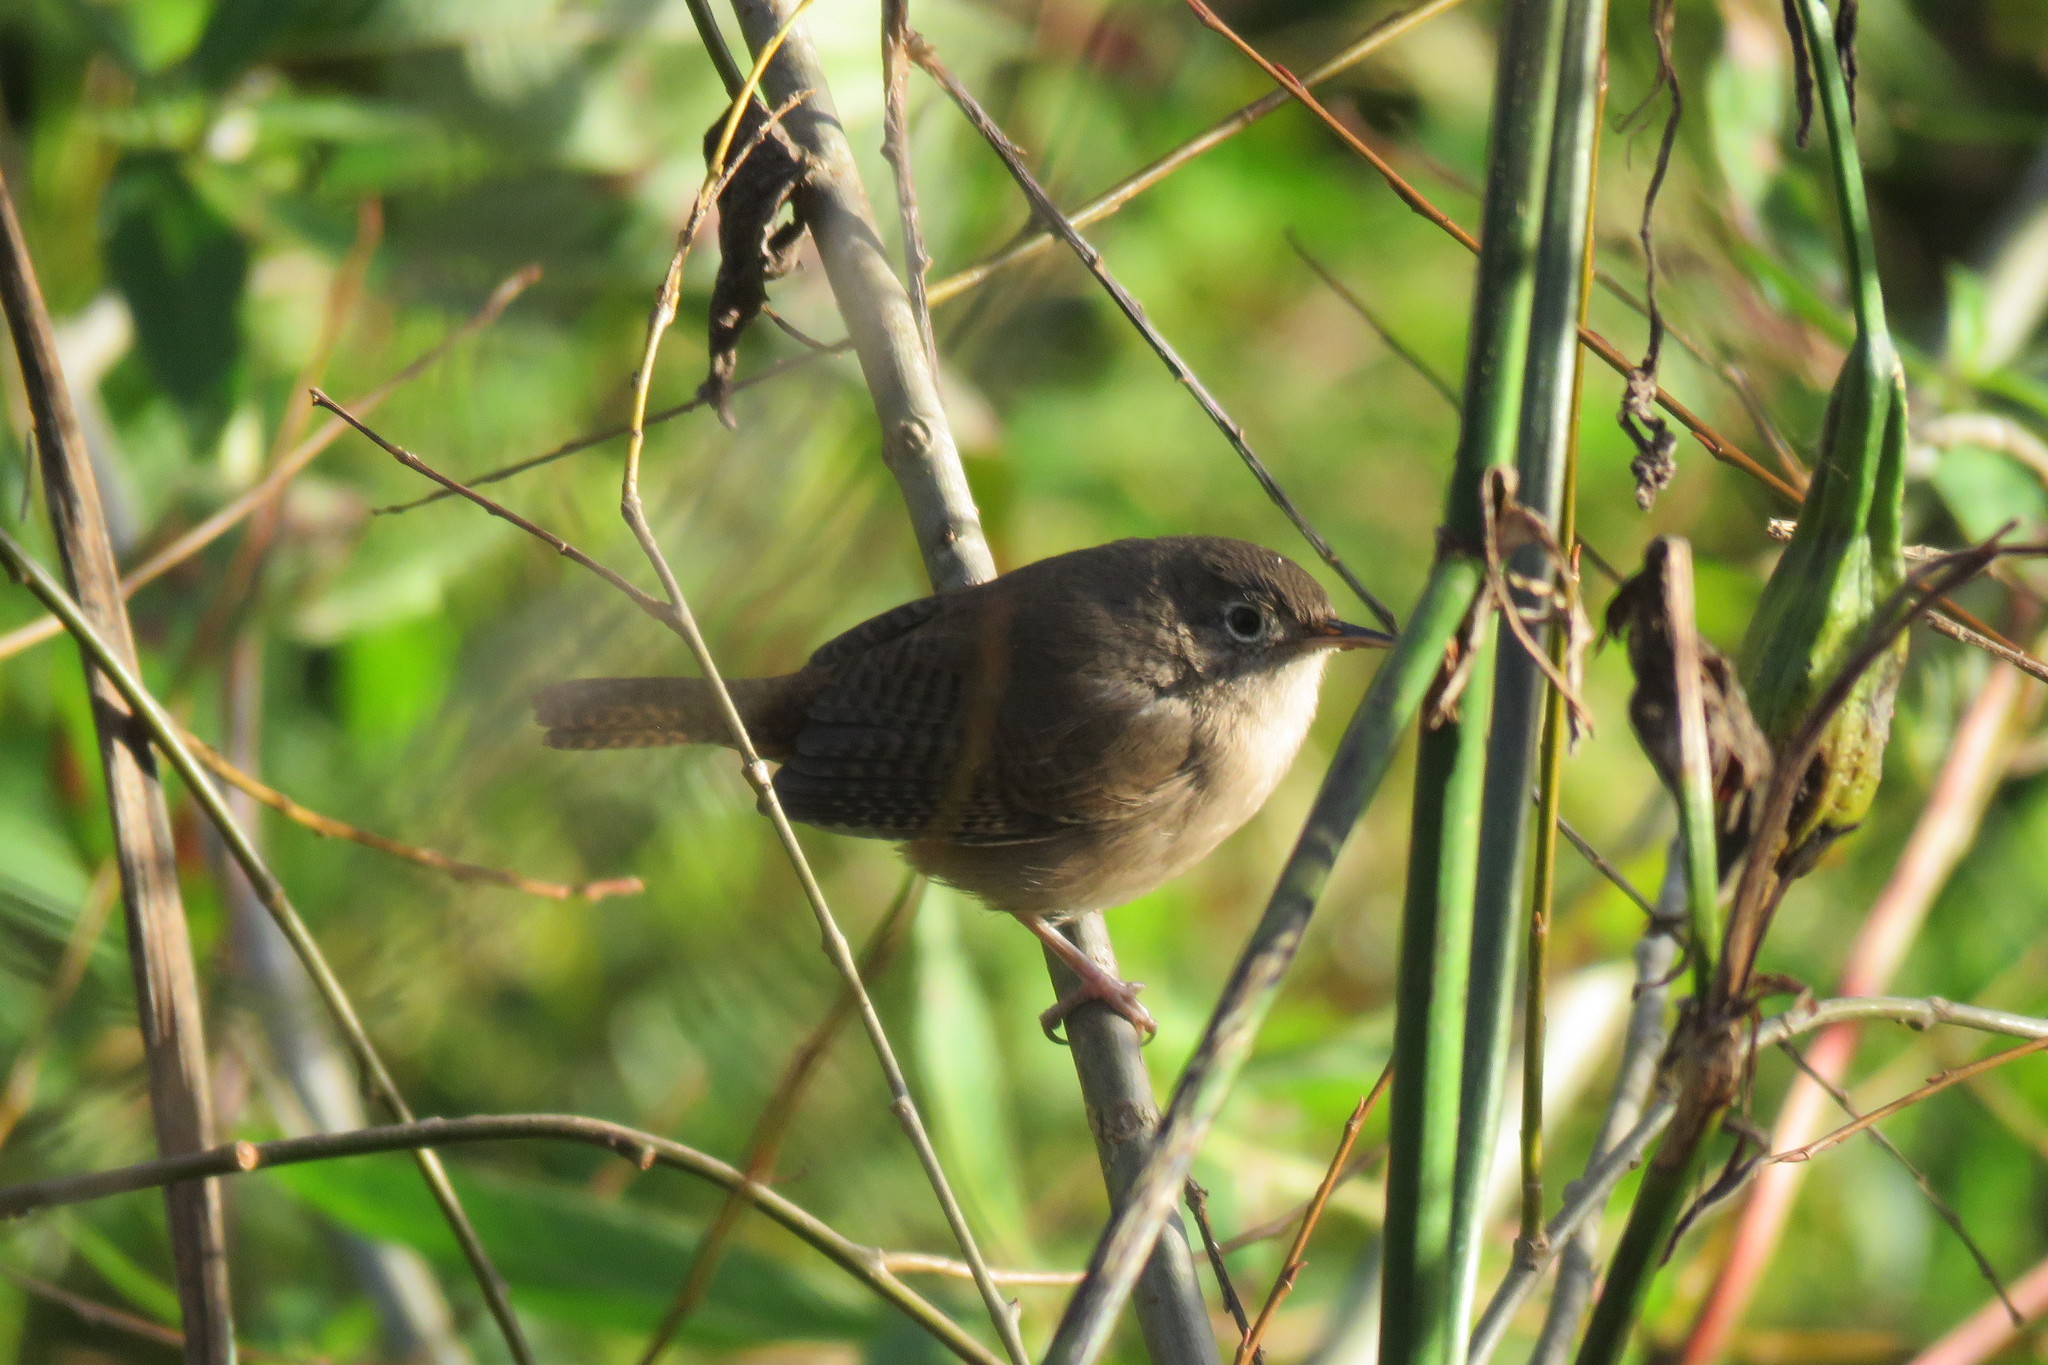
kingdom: Animalia
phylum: Chordata
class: Aves
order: Passeriformes
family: Troglodytidae
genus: Troglodytes
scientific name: Troglodytes aedon
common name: House wren
